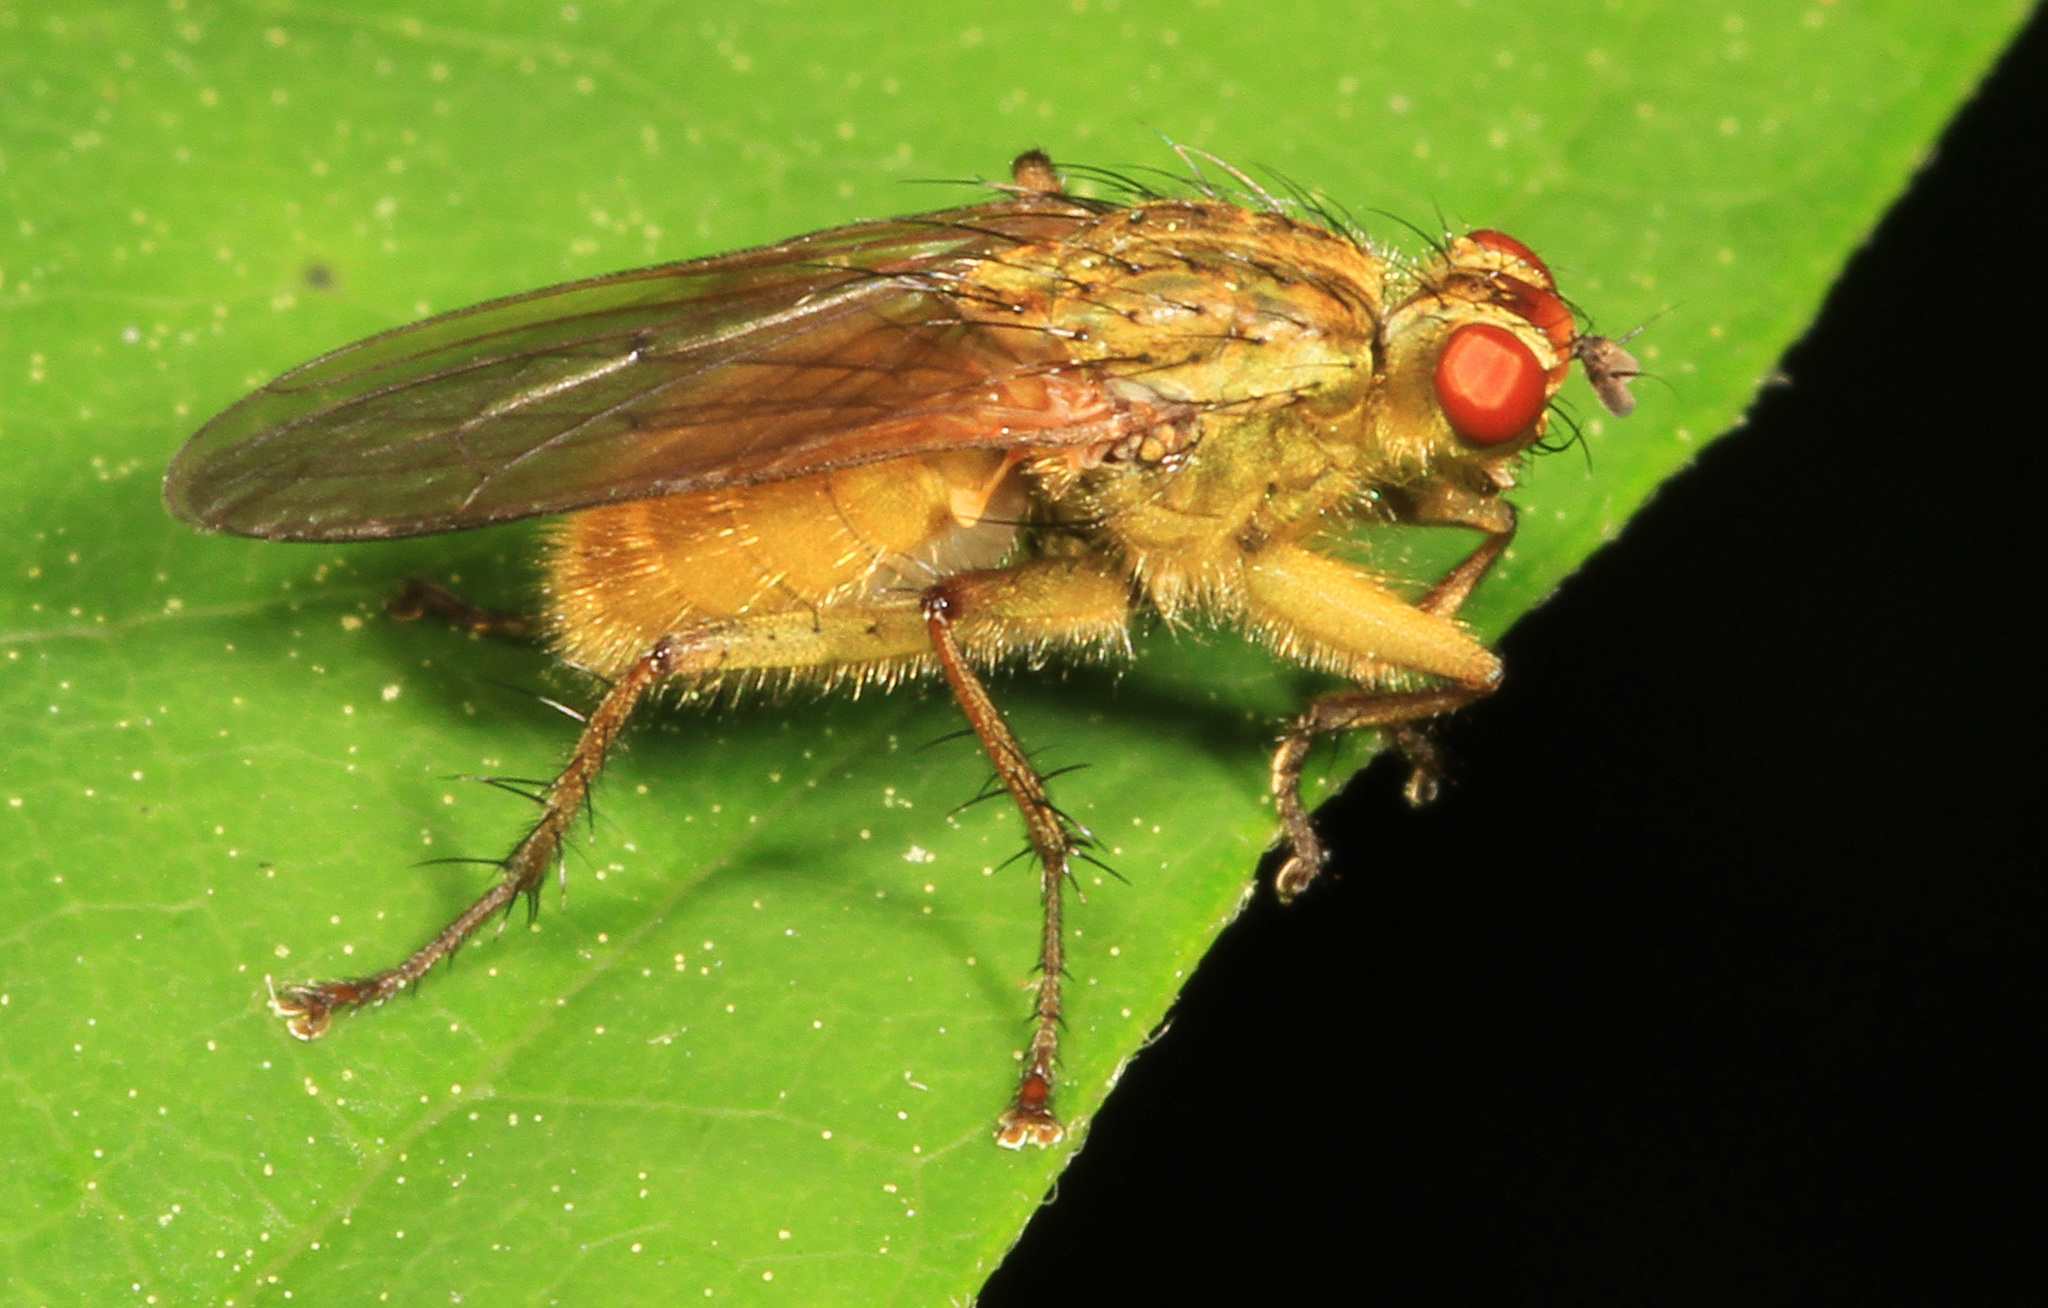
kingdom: Animalia
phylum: Arthropoda
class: Insecta
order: Diptera
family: Scathophagidae
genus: Scathophaga
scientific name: Scathophaga stercoraria
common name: Yellow dung fly
